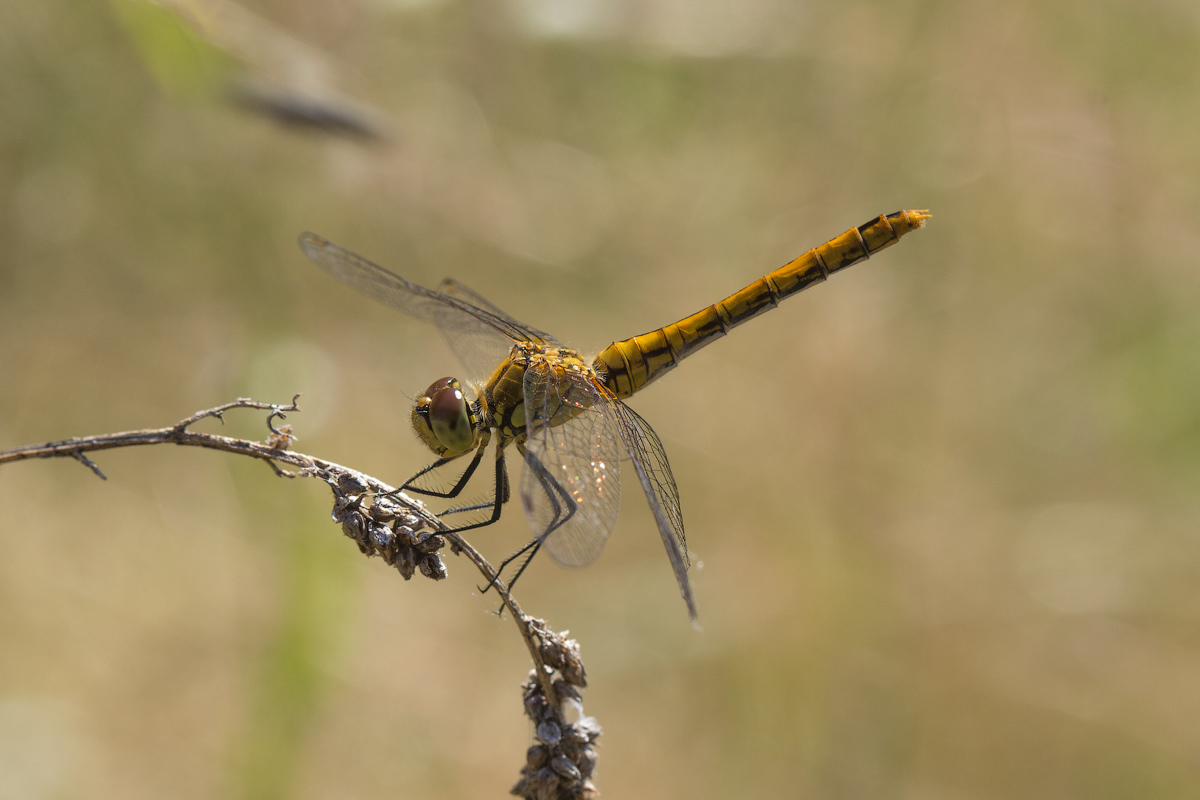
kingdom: Animalia
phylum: Arthropoda
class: Insecta
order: Odonata
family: Libellulidae
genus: Sympetrum
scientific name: Sympetrum sanguineum
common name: Ruddy darter
